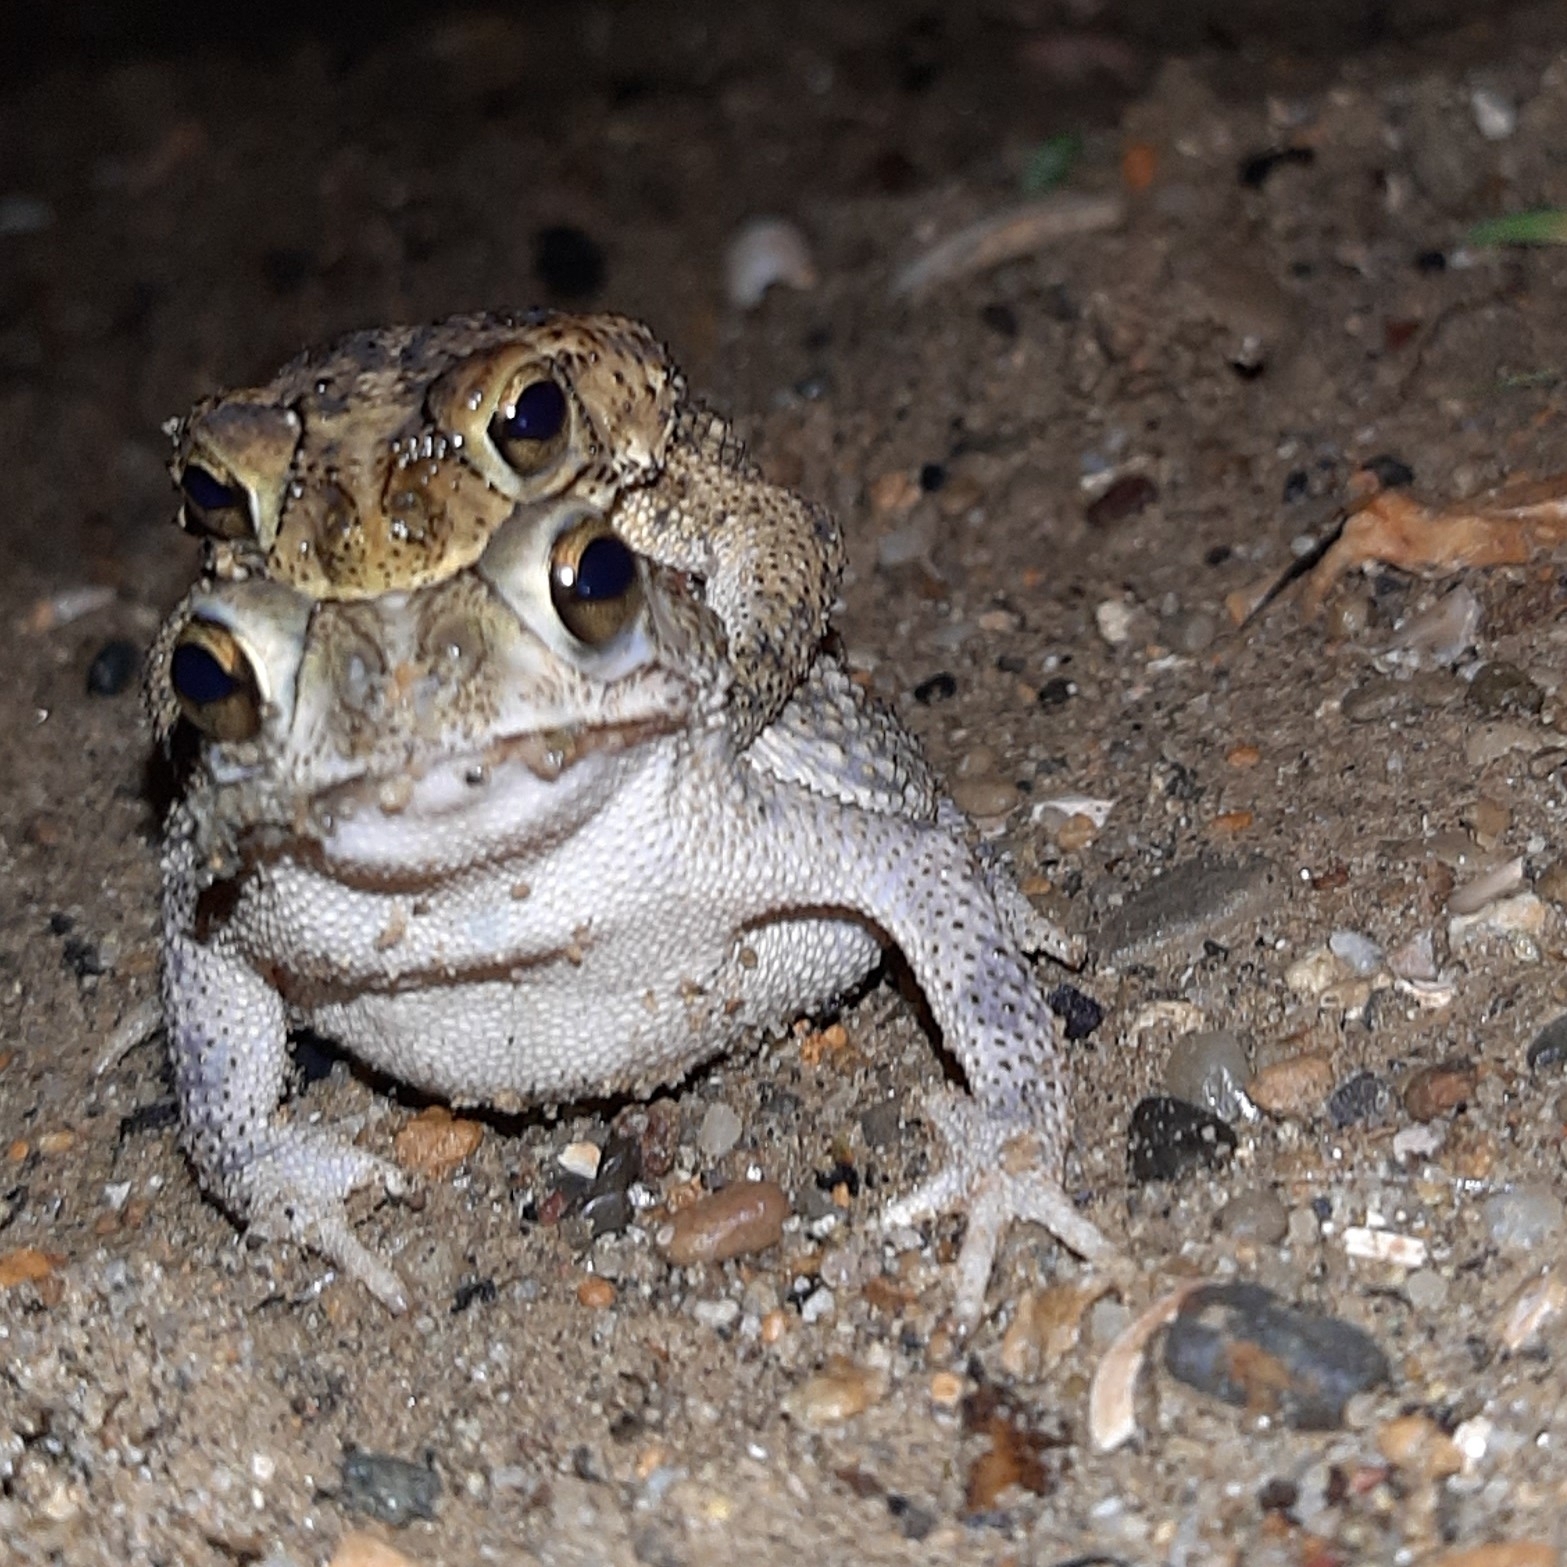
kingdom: Animalia
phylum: Chordata
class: Amphibia
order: Anura
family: Bufonidae
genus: Rhinella
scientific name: Rhinella humboldti
